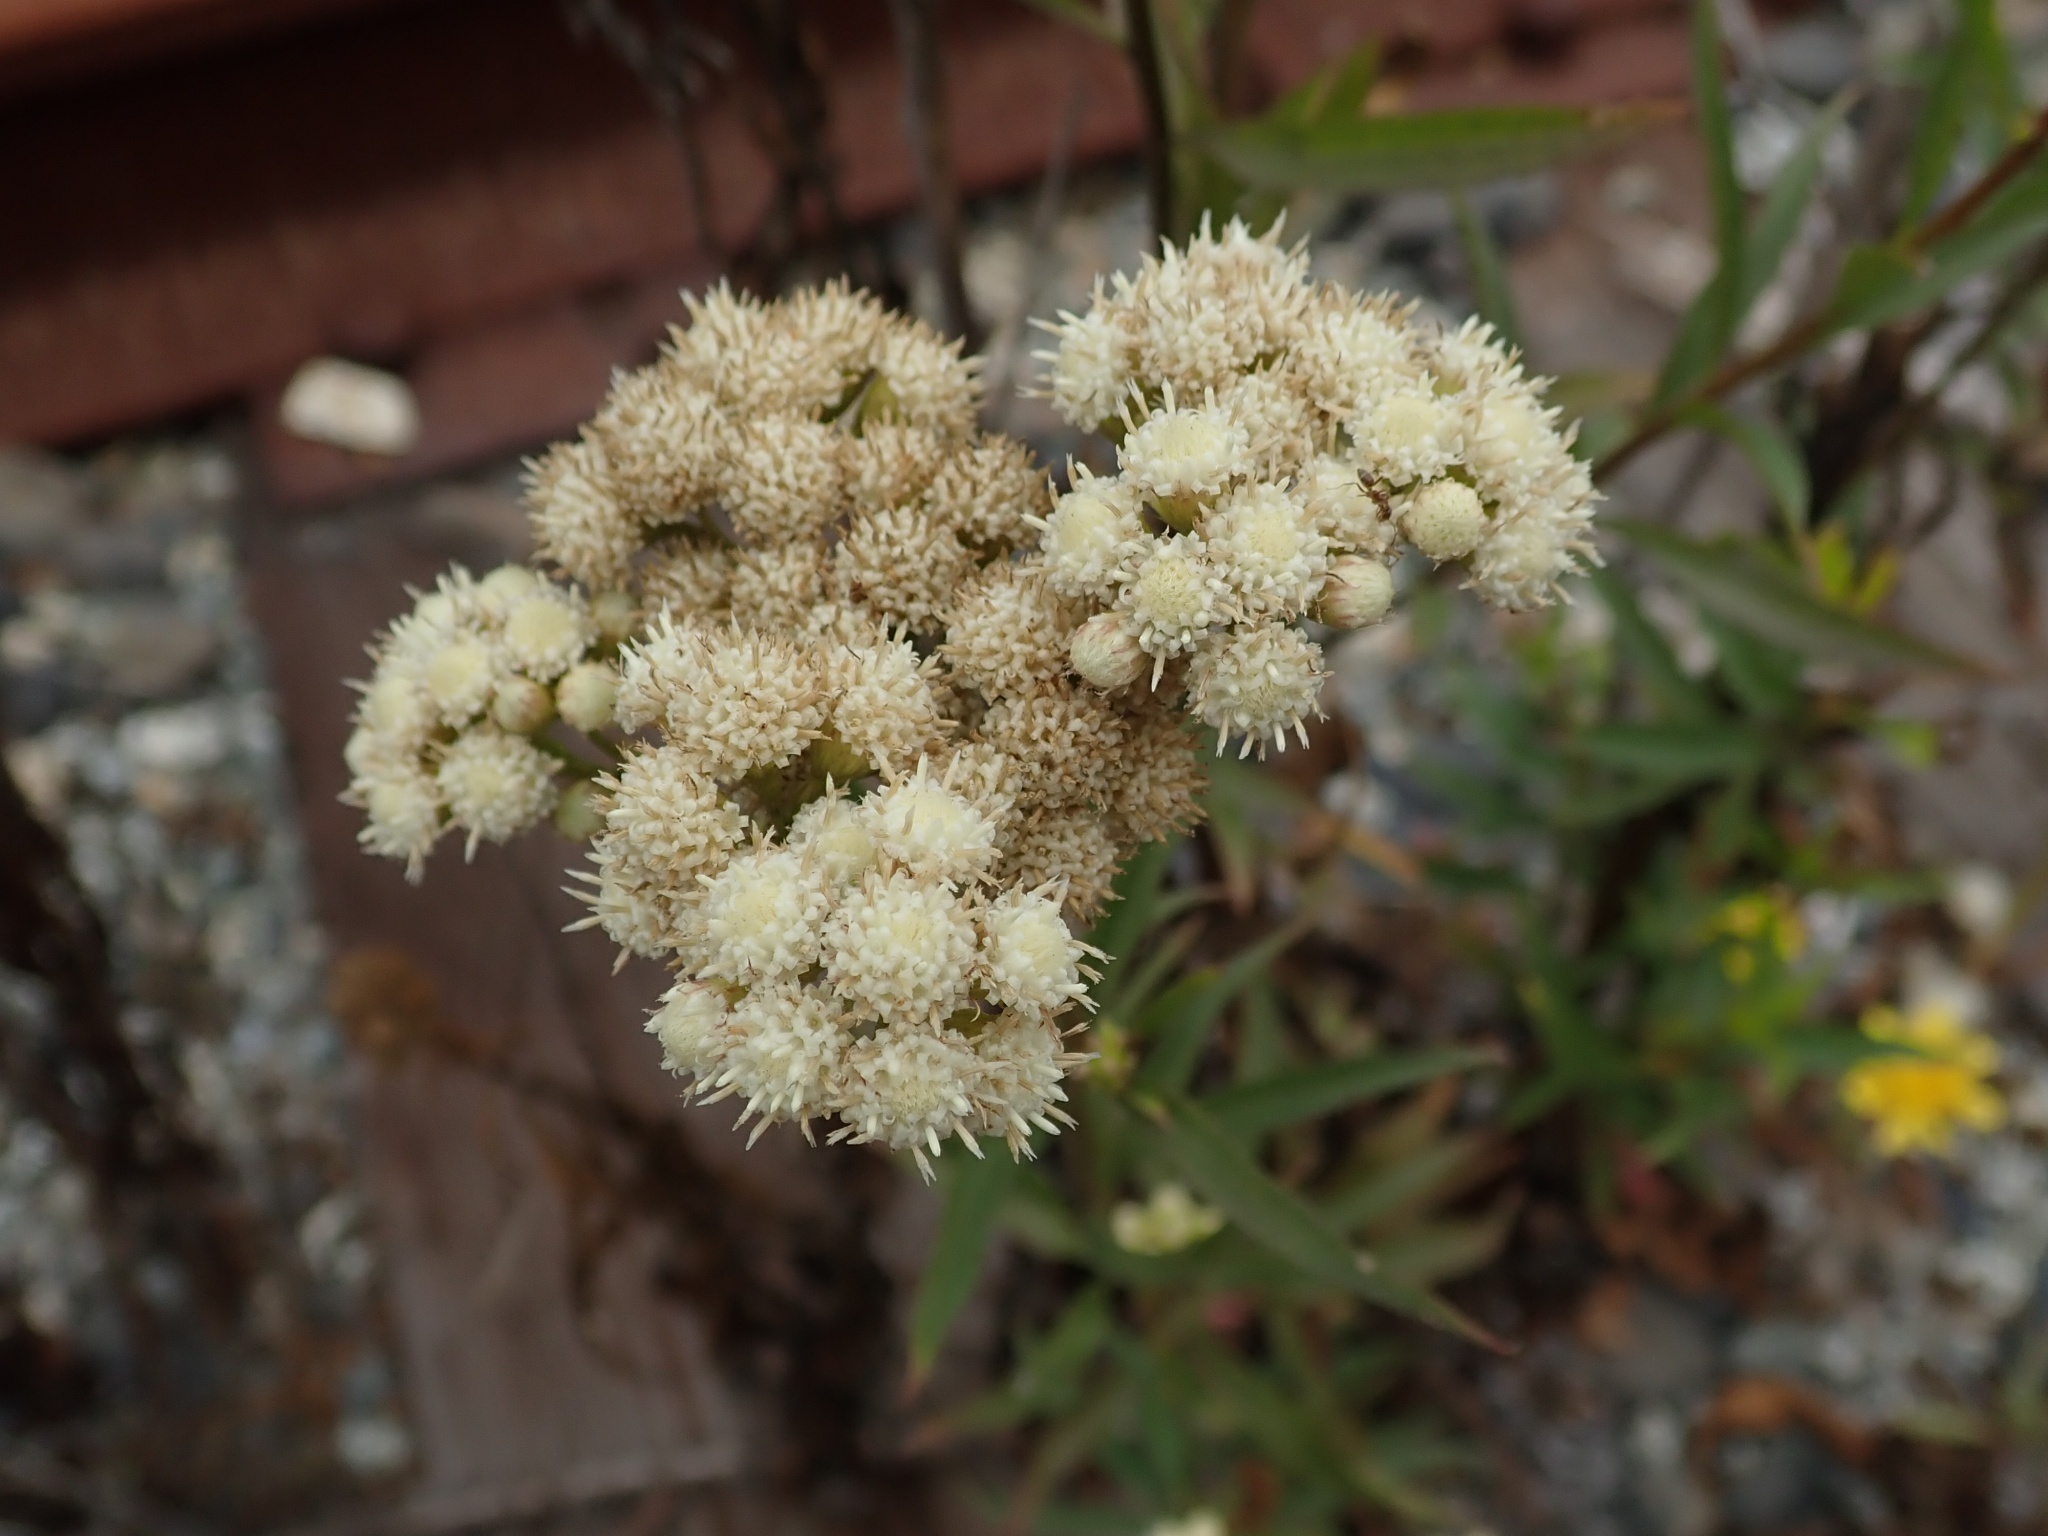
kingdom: Plantae
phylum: Tracheophyta
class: Magnoliopsida
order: Asterales
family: Asteraceae
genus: Baccharis
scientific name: Baccharis glutinosa
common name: Saltmarsh baccharis
